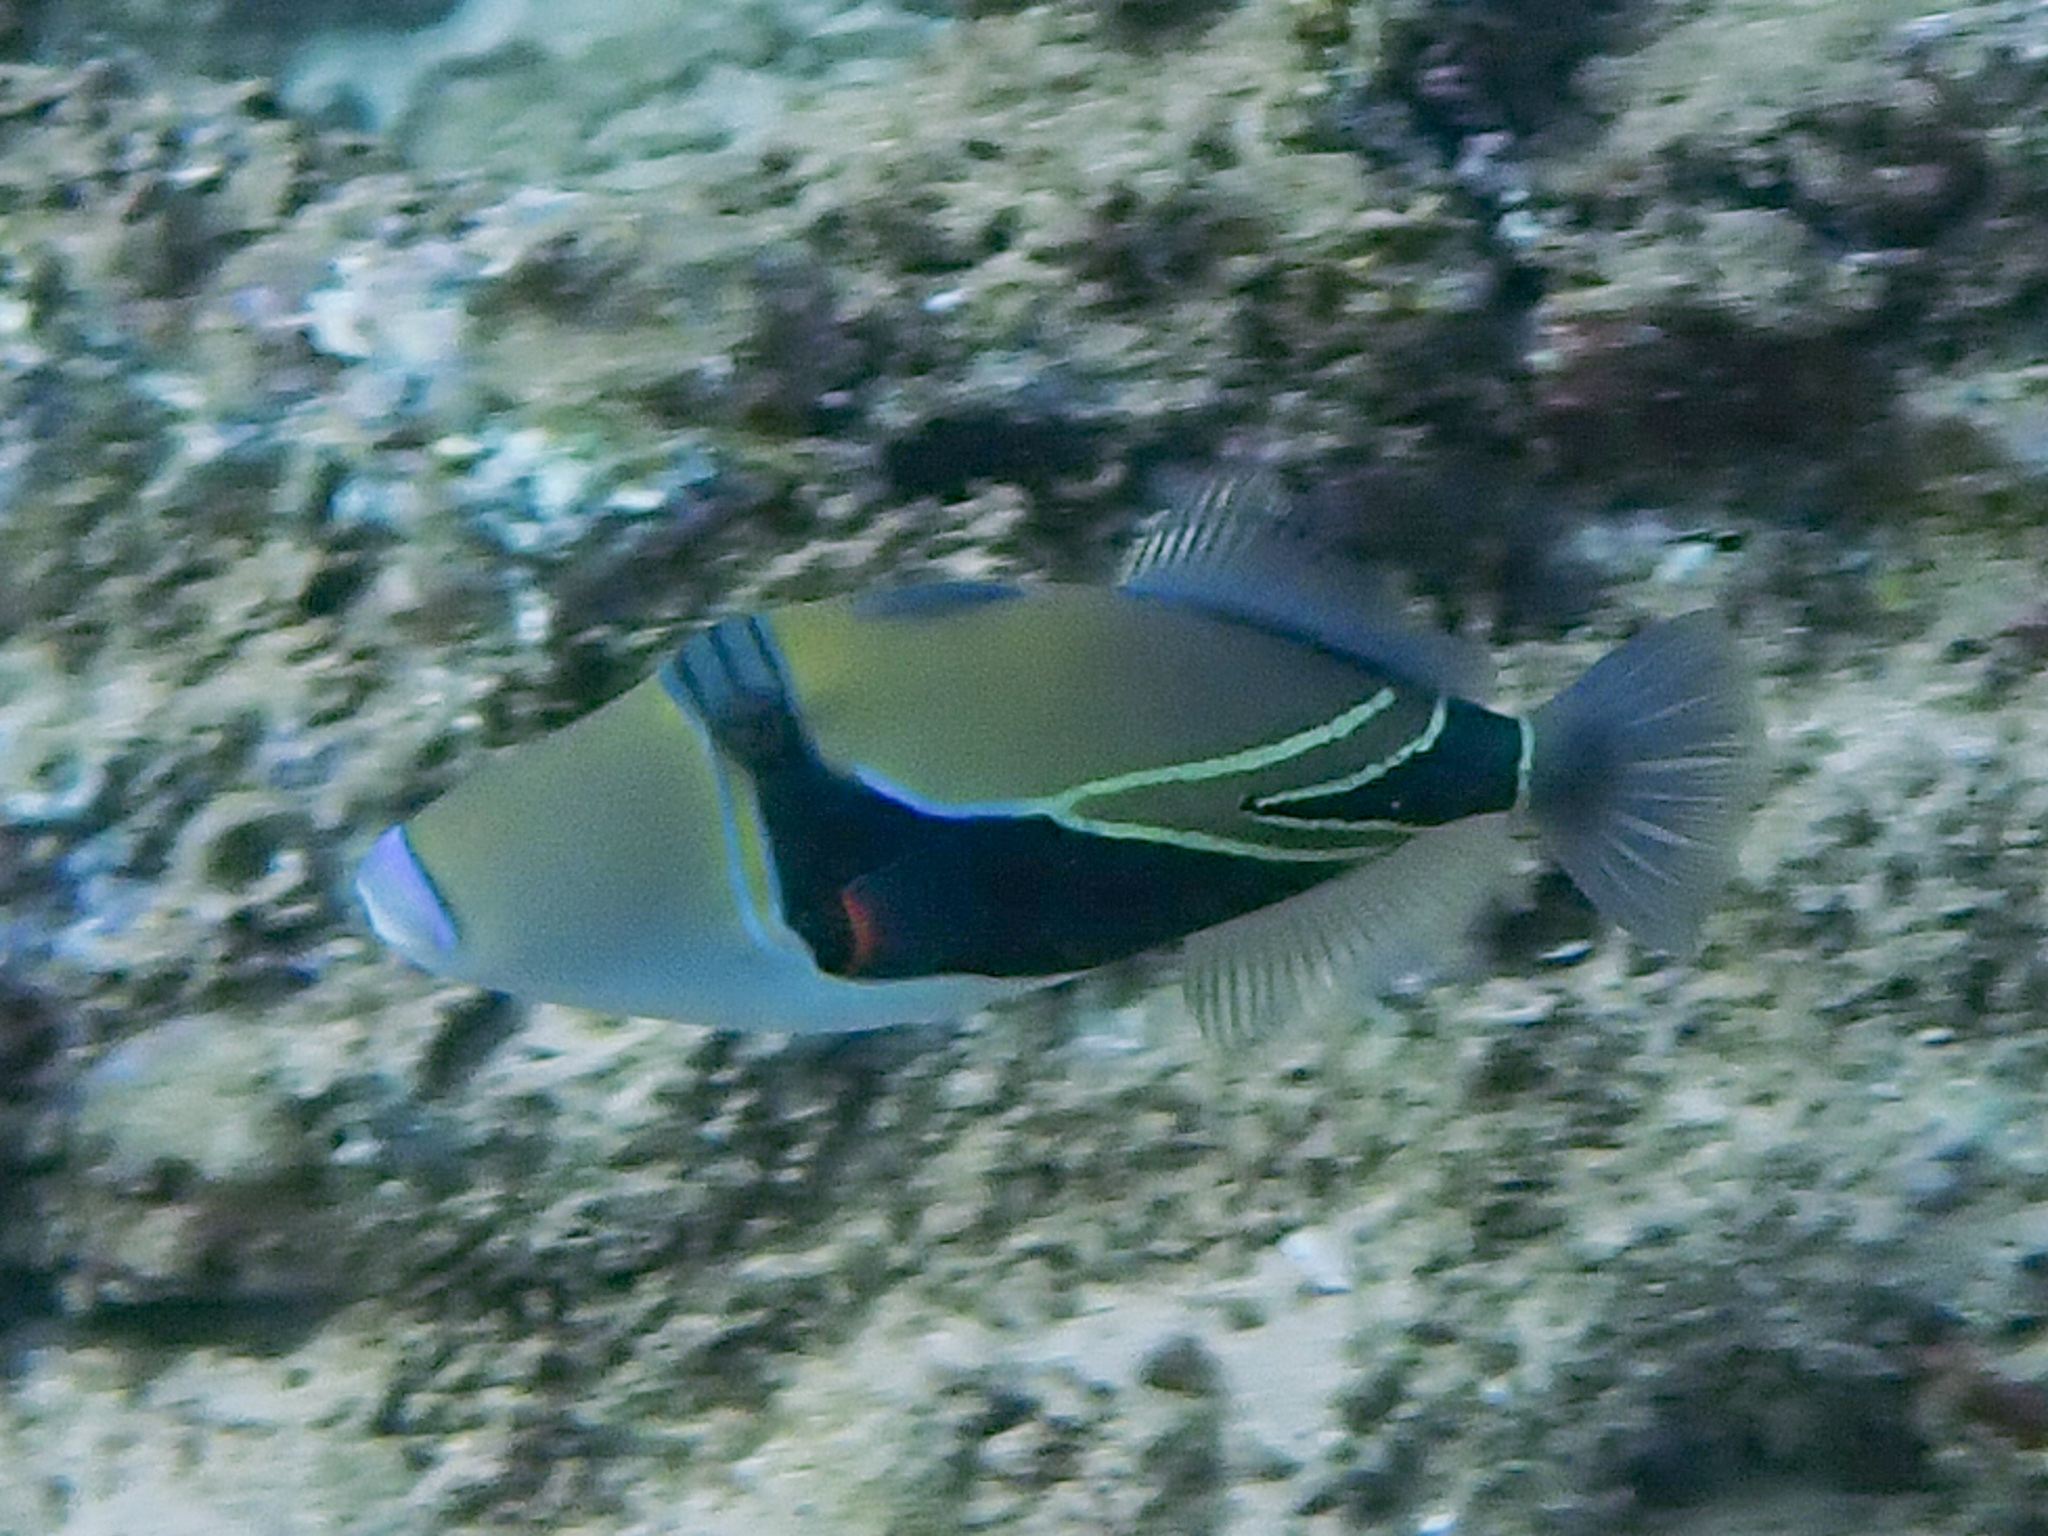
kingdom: Animalia
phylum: Chordata
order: Tetraodontiformes
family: Balistidae
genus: Rhinecanthus
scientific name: Rhinecanthus rectangulus
